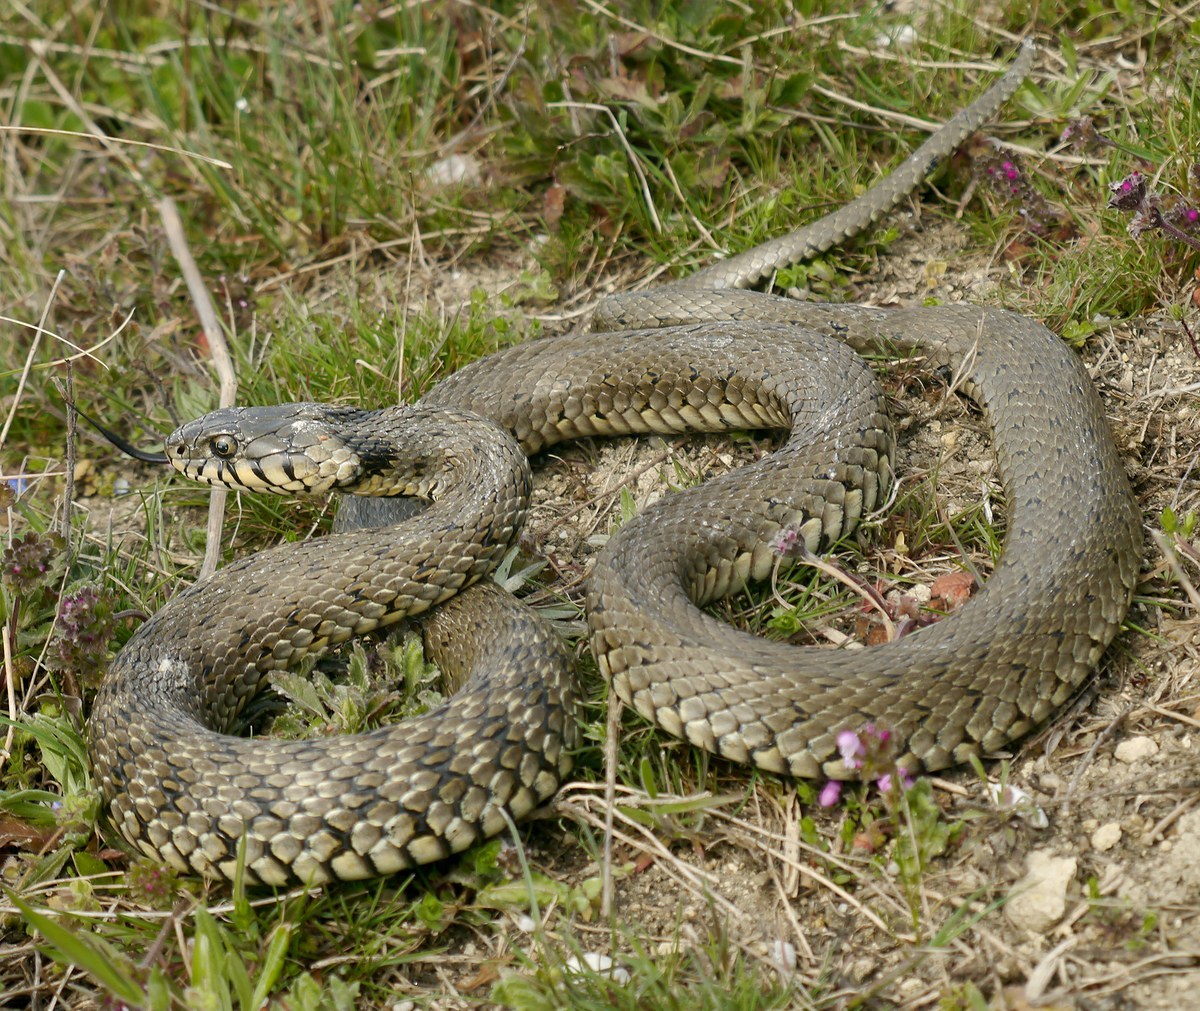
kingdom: Animalia
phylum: Chordata
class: Squamata
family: Colubridae
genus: Natrix
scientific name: Natrix natrix
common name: Grass snake
